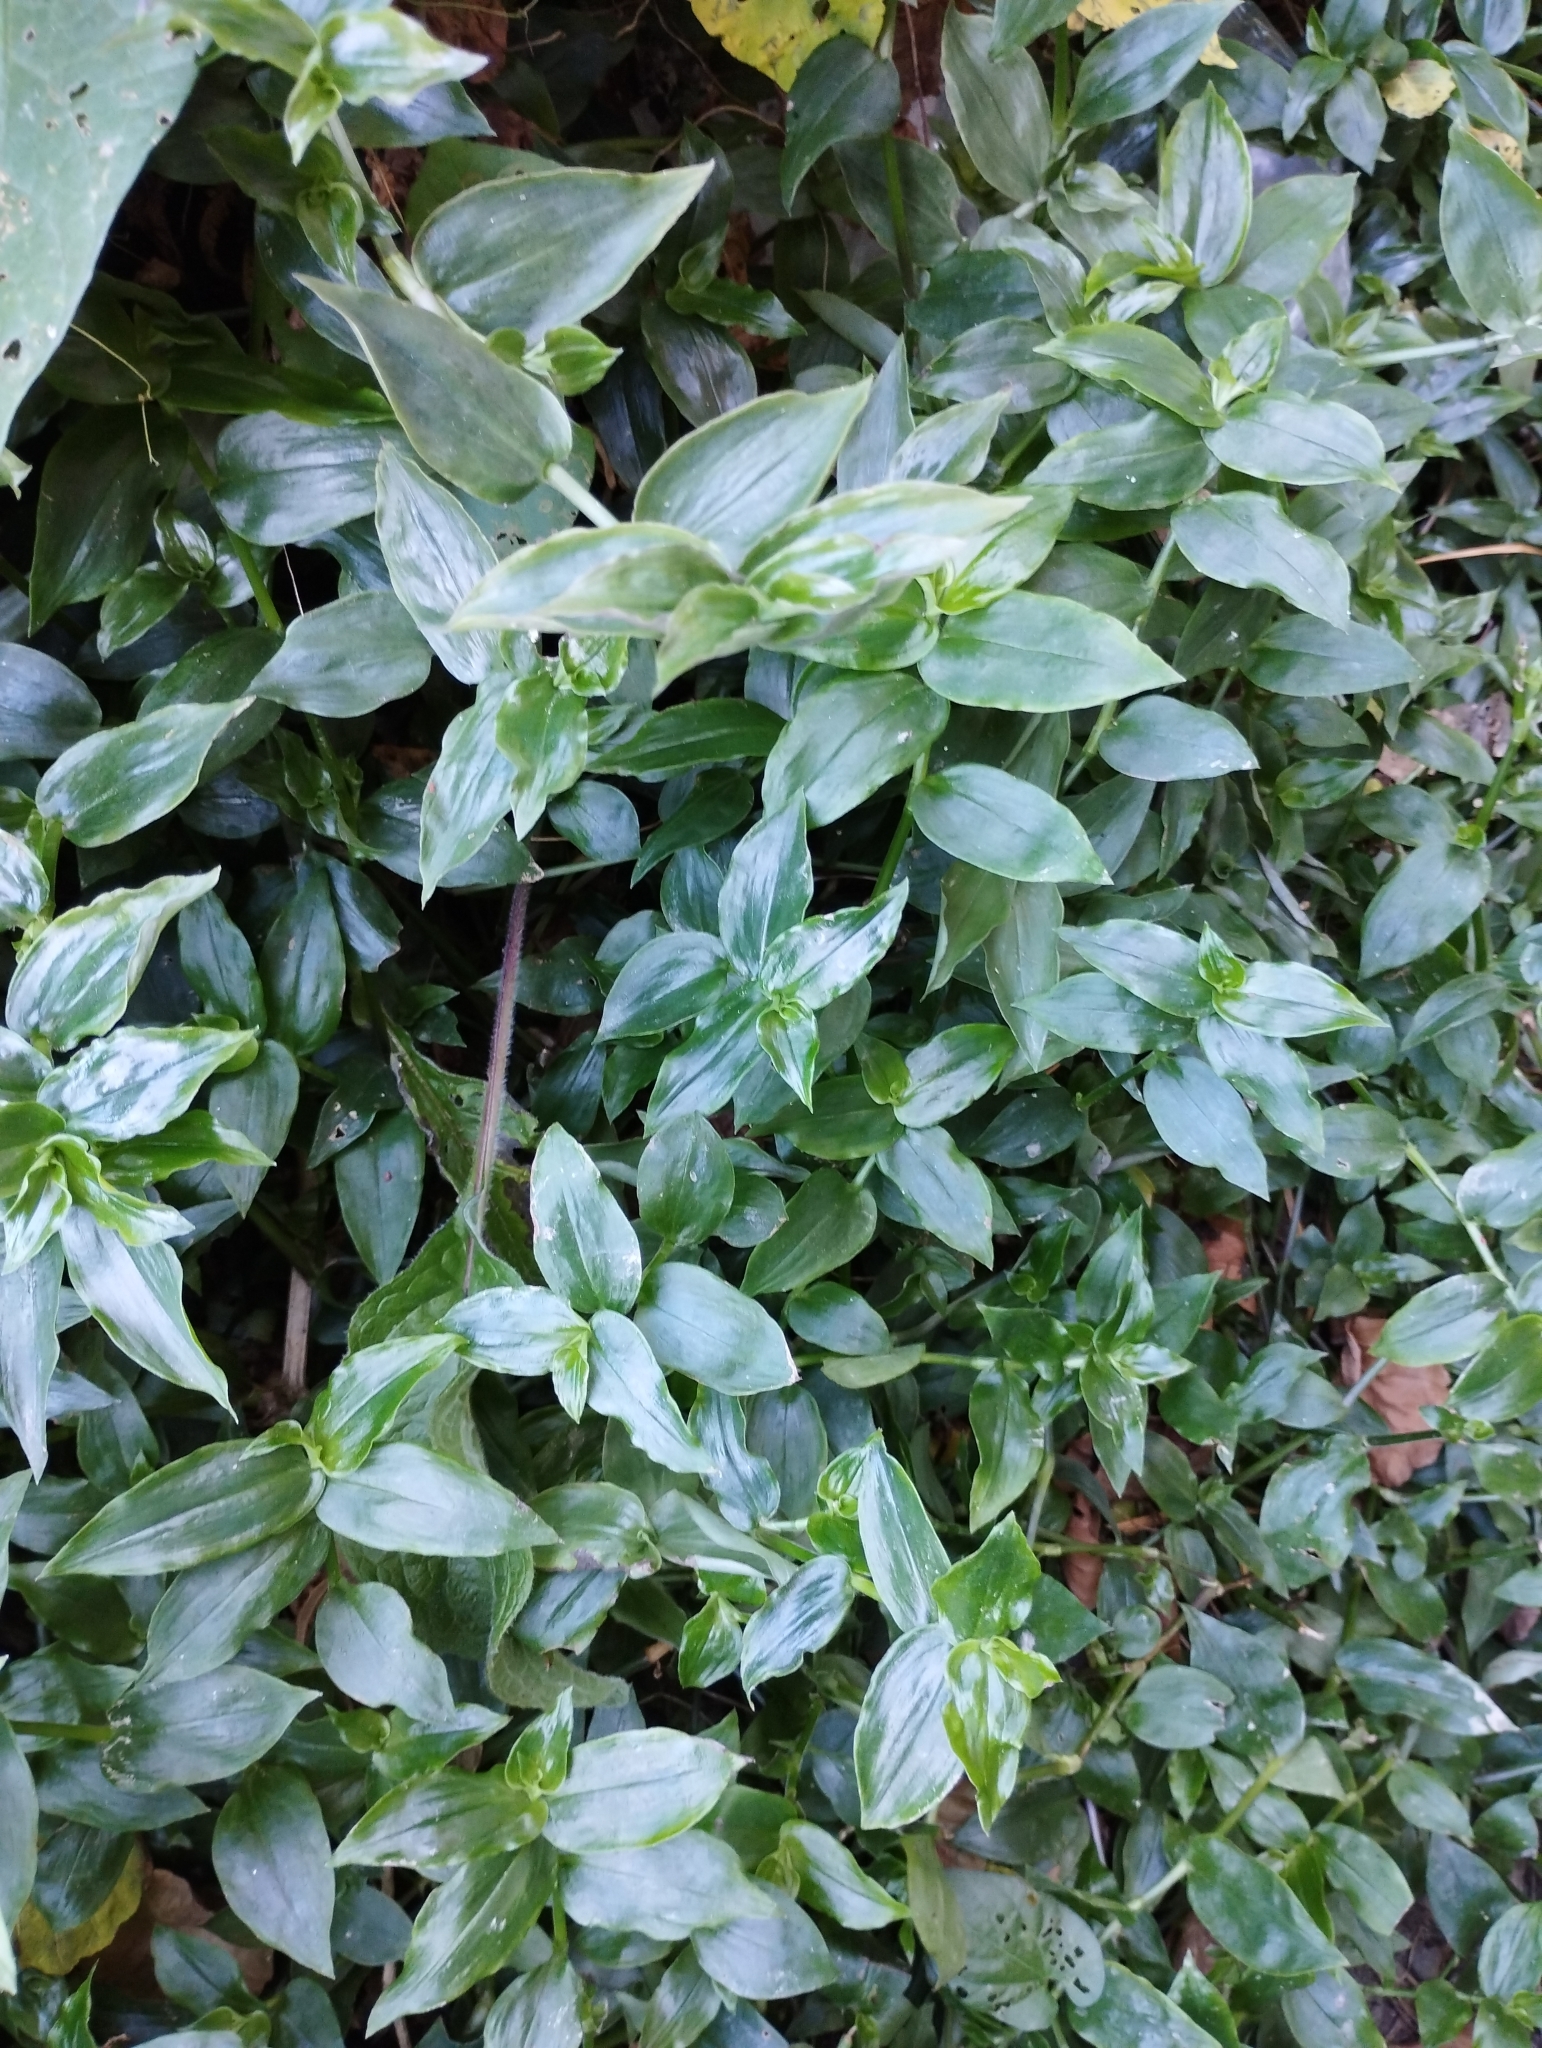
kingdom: Plantae
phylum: Tracheophyta
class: Liliopsida
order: Commelinales
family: Commelinaceae
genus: Tradescantia
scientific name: Tradescantia fluminensis
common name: Wandering-jew
